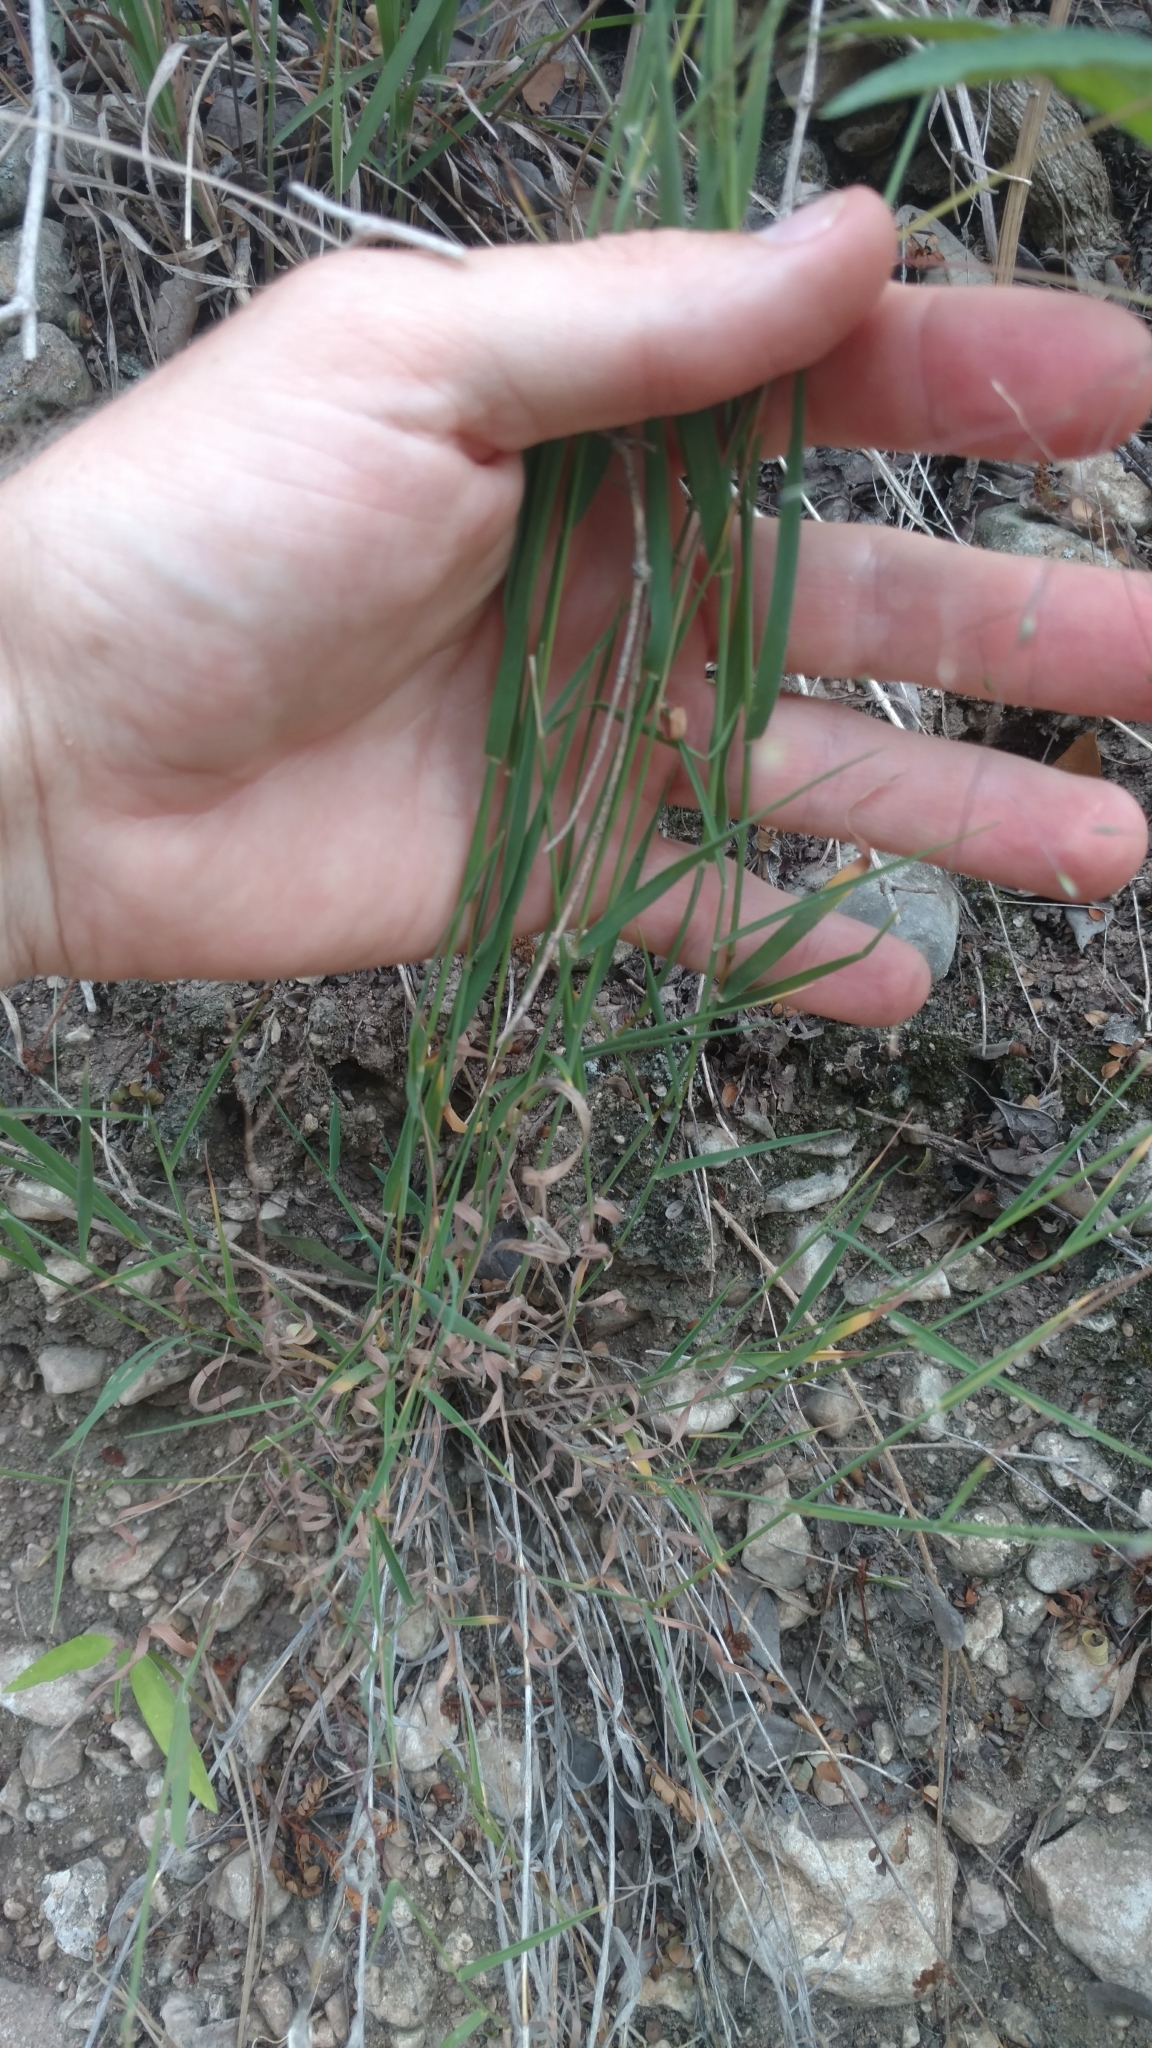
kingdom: Plantae
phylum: Tracheophyta
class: Liliopsida
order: Poales
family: Poaceae
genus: Digitaria
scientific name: Digitaria cognata
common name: Fall witchgrass
